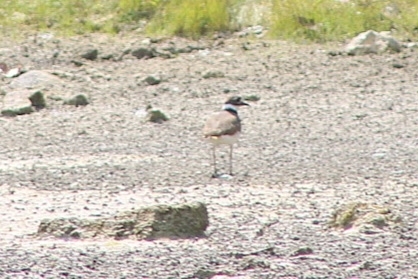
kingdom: Animalia
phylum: Chordata
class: Aves
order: Charadriiformes
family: Charadriidae
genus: Charadrius
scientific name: Charadrius vociferus
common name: Killdeer
